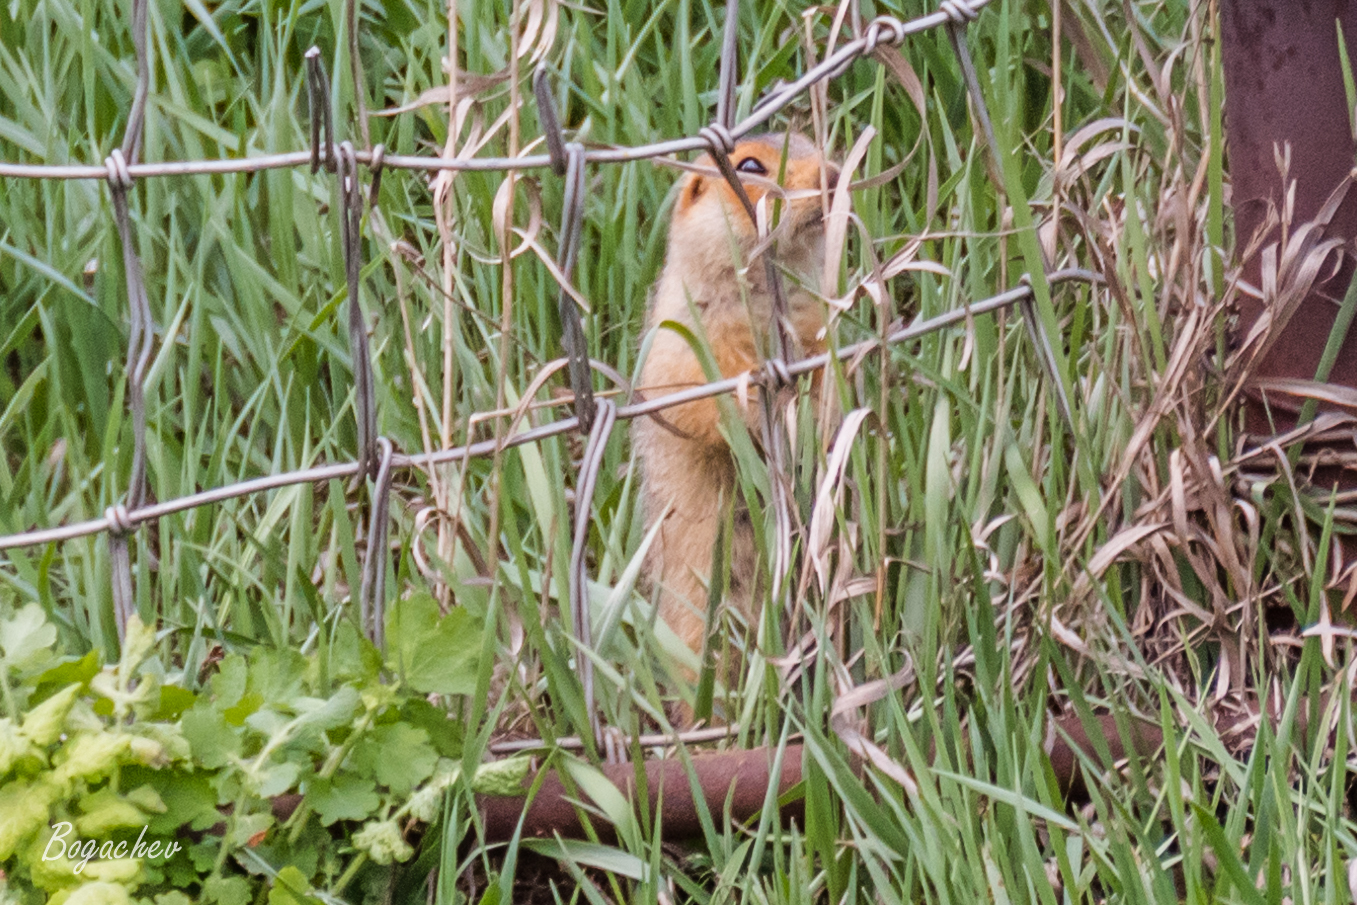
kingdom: Animalia
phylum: Chordata
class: Mammalia
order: Rodentia
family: Sciuridae
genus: Spermophilus
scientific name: Spermophilus major
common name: Russet ground squirrel
